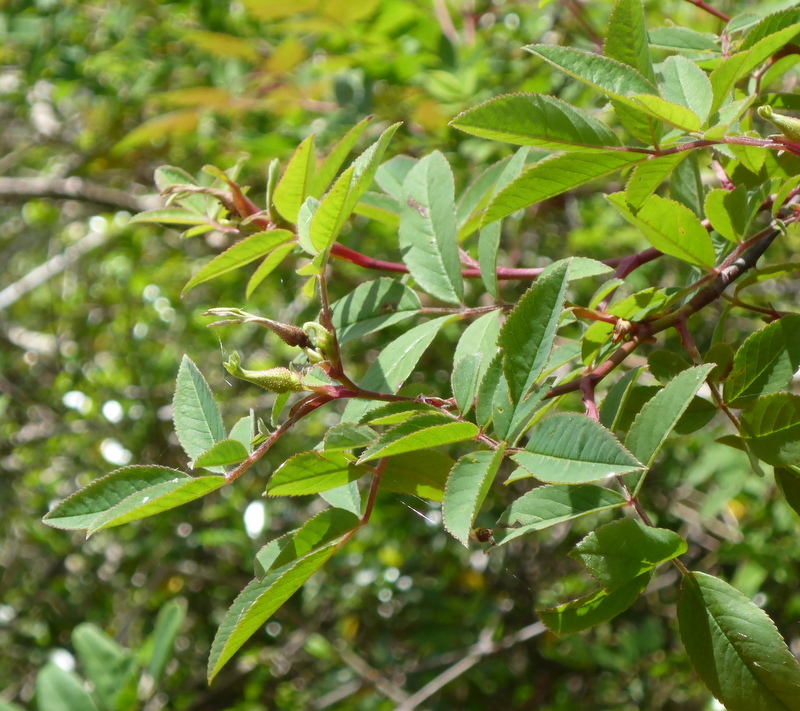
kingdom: Plantae
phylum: Tracheophyta
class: Magnoliopsida
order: Rosales
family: Rosaceae
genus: Rosa
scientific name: Rosa palustris
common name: Swamp rose
